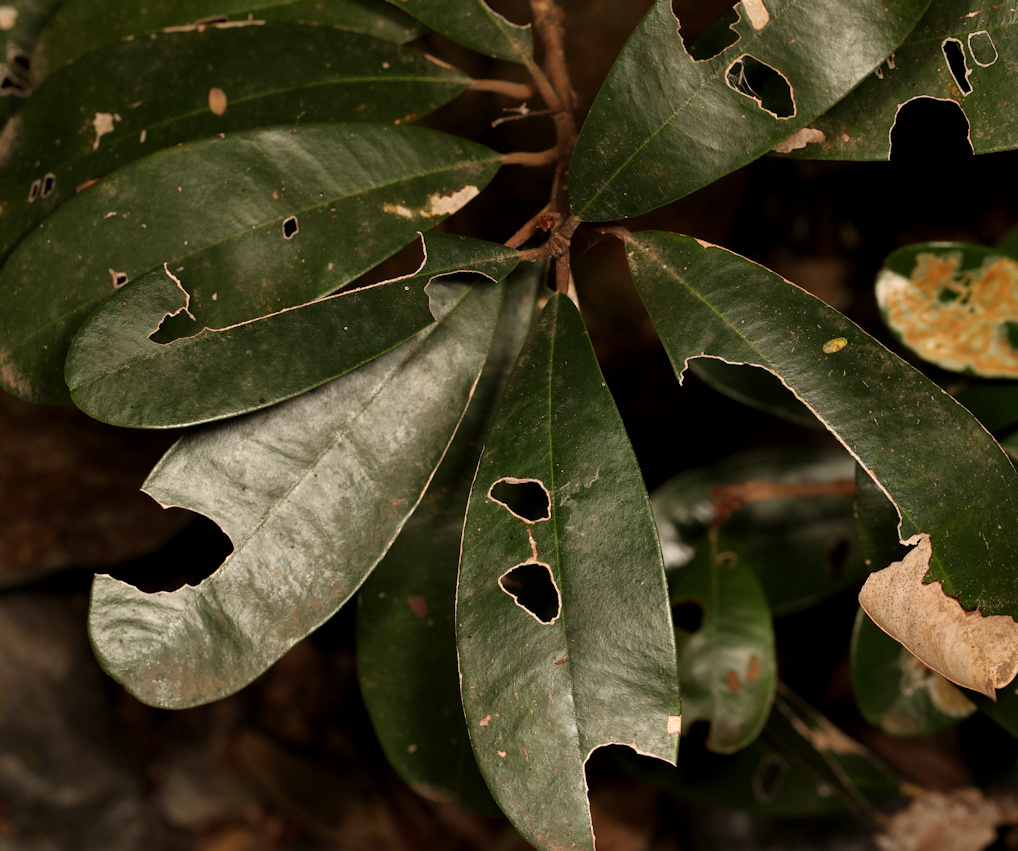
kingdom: Plantae
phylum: Tracheophyta
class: Magnoliopsida
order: Ericales
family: Sapotaceae
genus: Englerophytum
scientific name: Englerophytum magalismontanum
